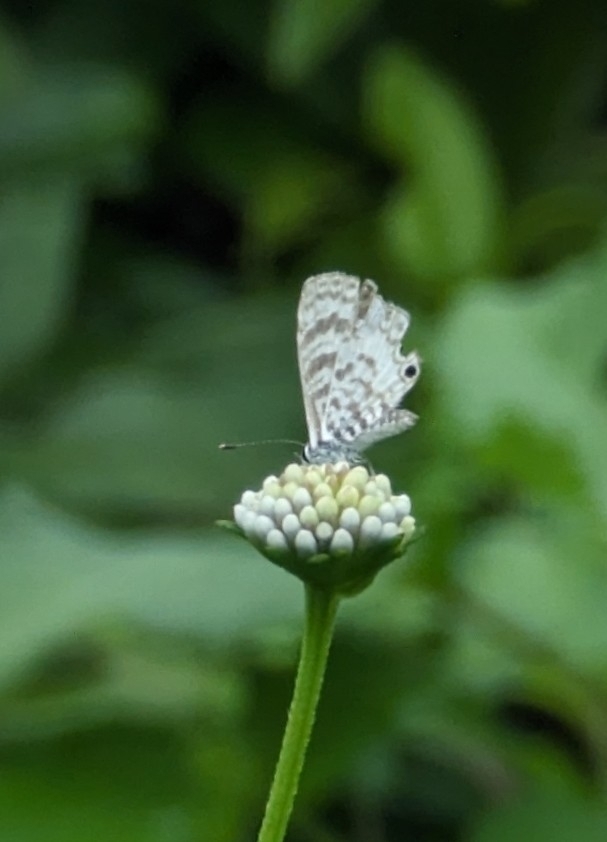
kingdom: Animalia
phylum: Arthropoda
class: Insecta
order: Lepidoptera
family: Lycaenidae
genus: Leptotes
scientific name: Leptotes cassius
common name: Cassius blue
